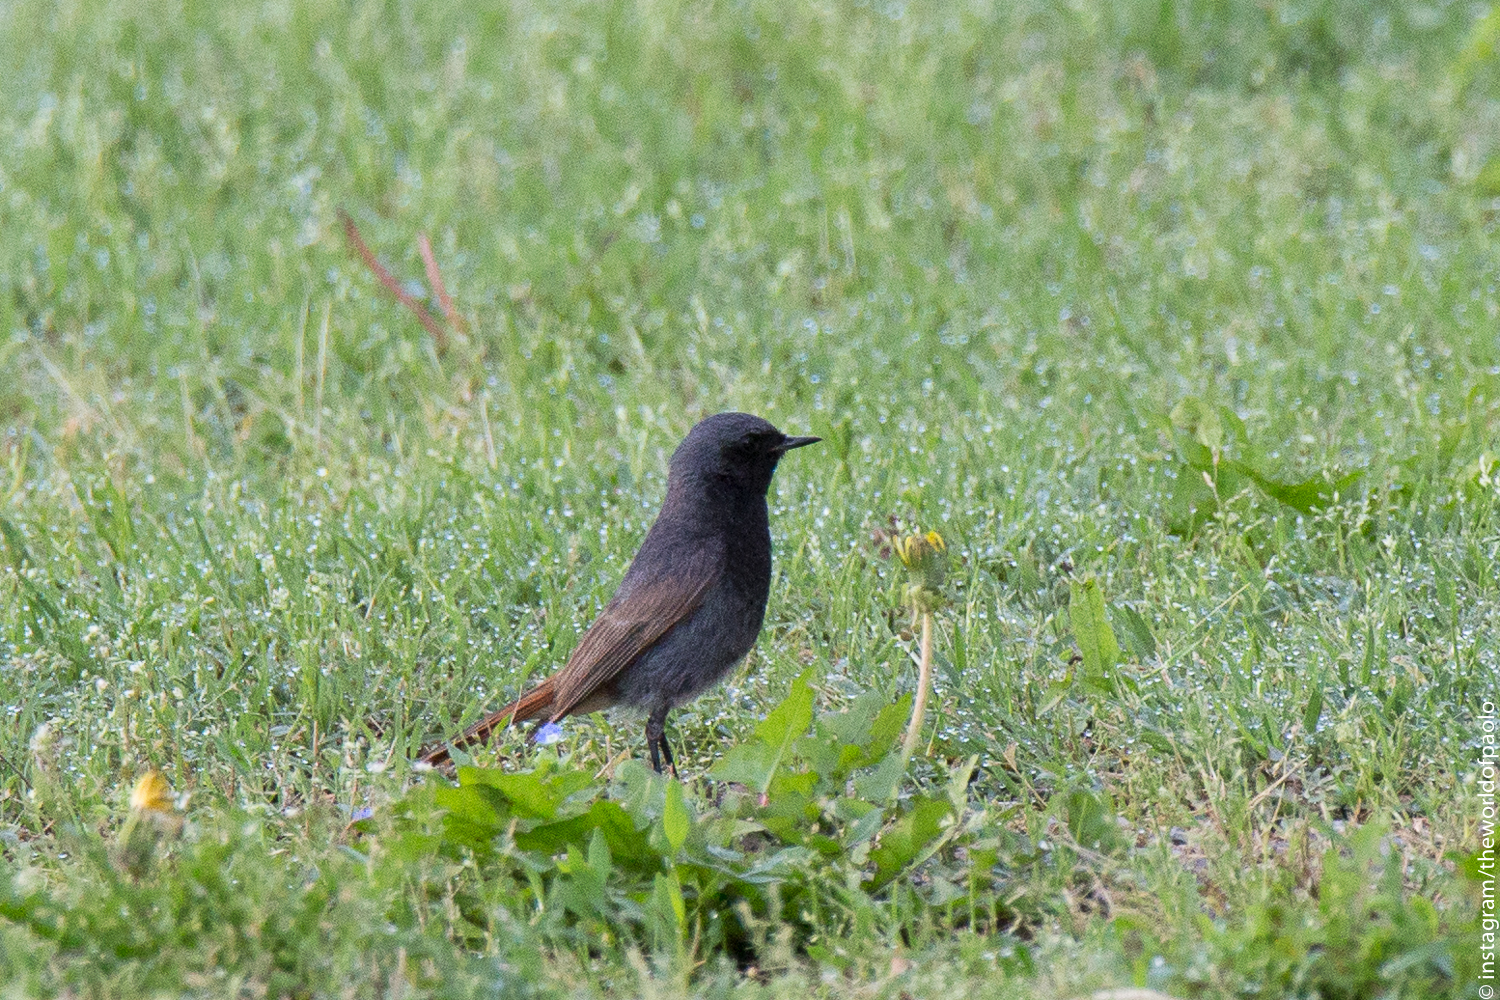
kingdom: Animalia
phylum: Chordata
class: Aves
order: Passeriformes
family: Muscicapidae
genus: Phoenicurus
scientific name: Phoenicurus ochruros
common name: Black redstart
